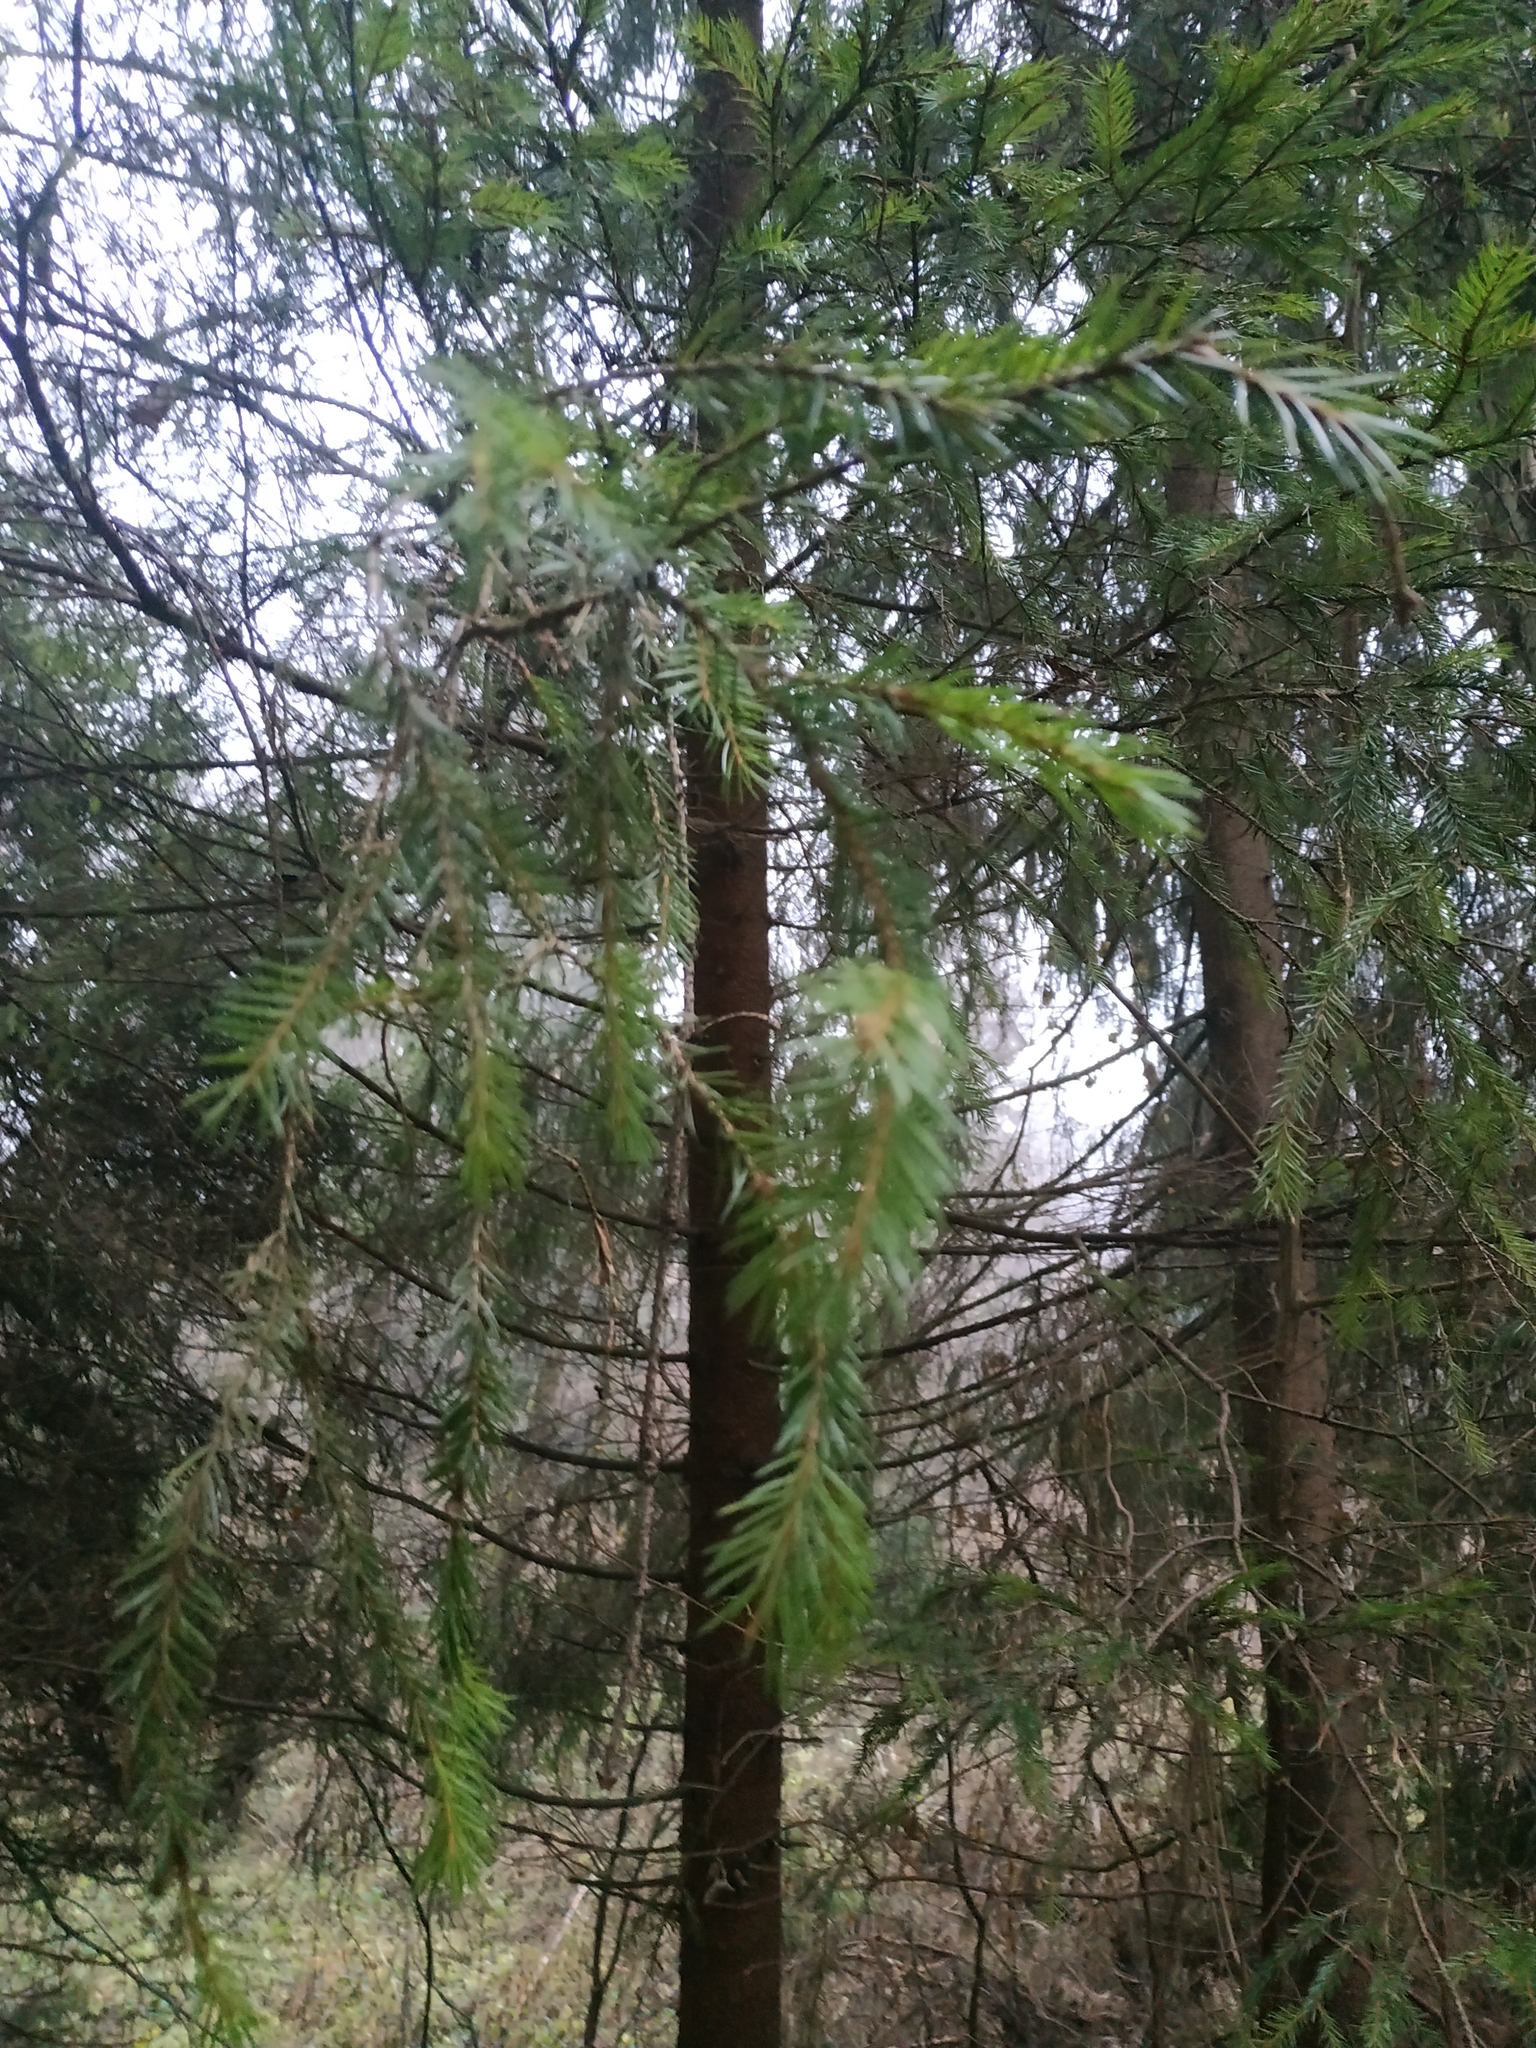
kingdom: Plantae
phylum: Tracheophyta
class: Pinopsida
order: Pinales
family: Pinaceae
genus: Picea
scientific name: Picea abies
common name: Norway spruce
